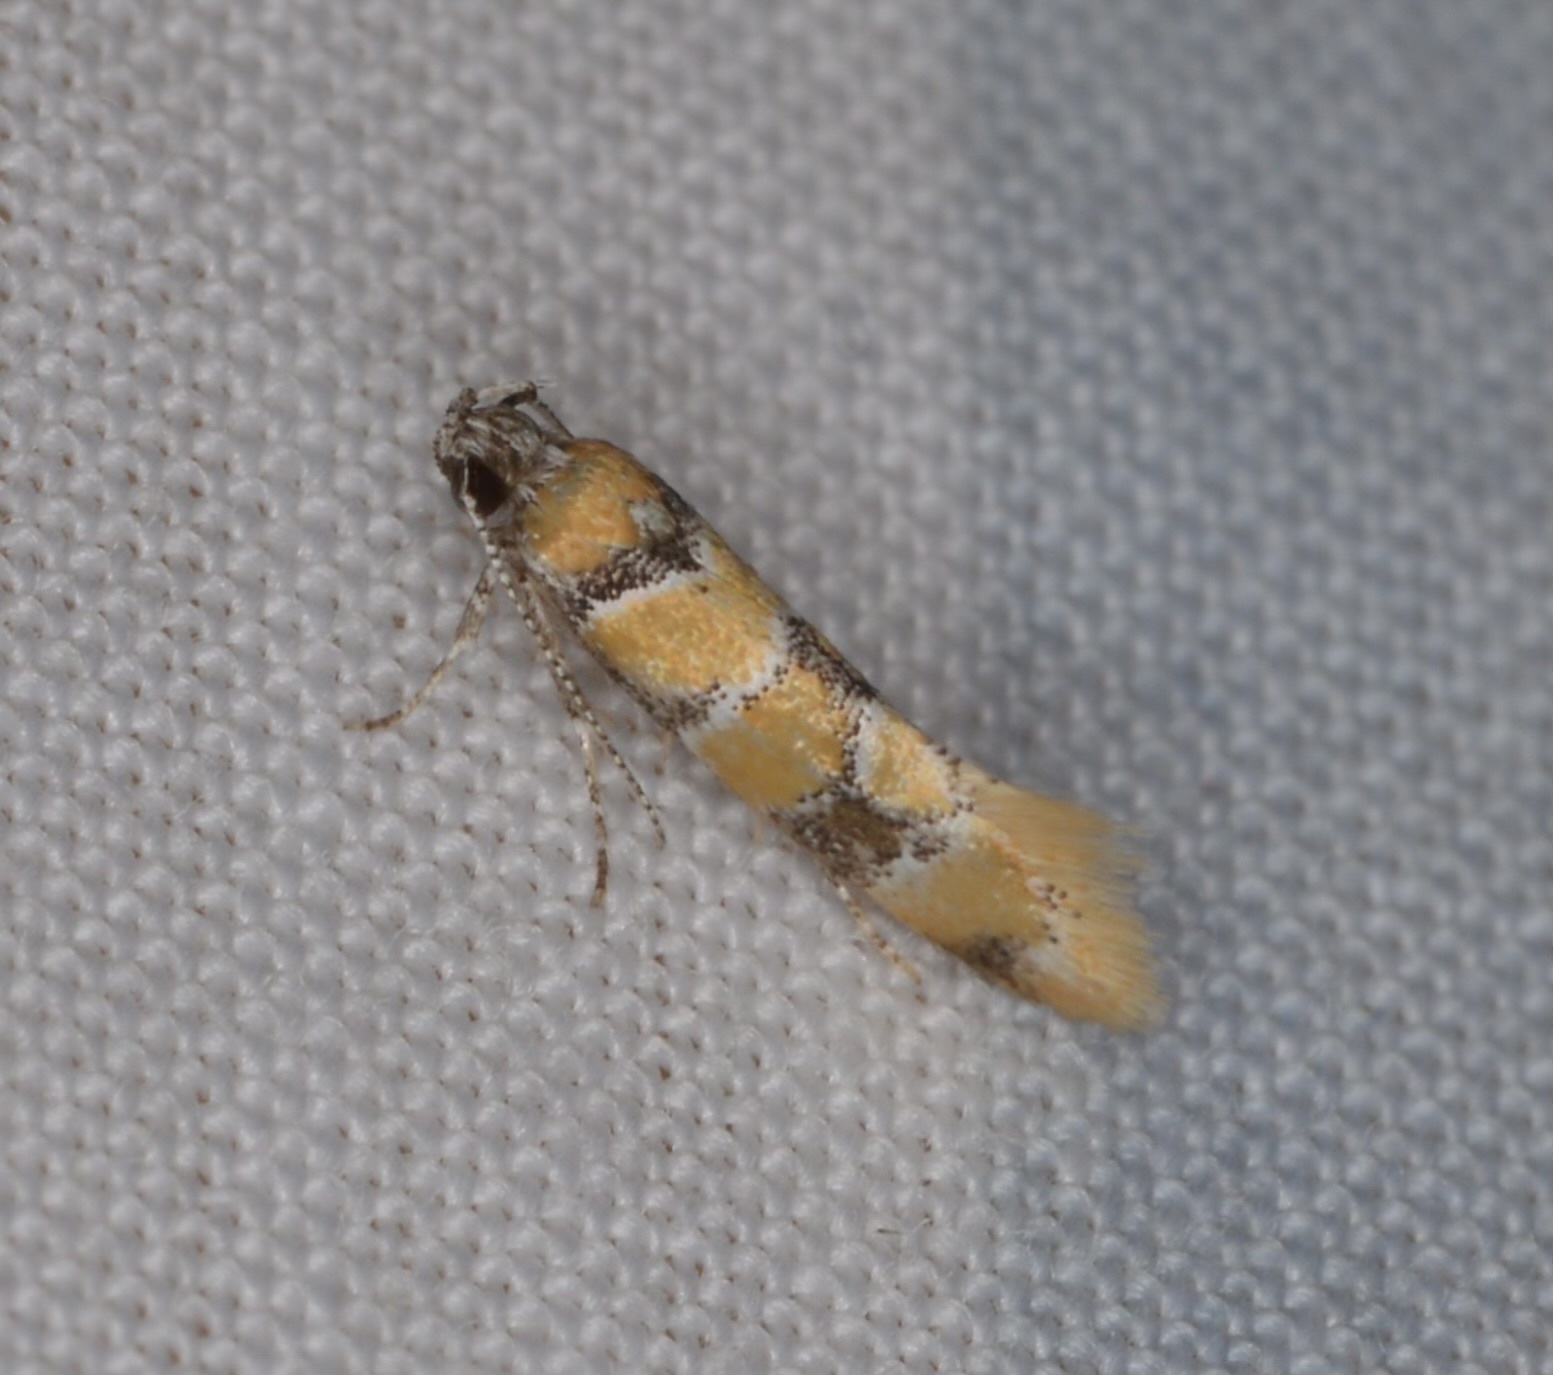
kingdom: Animalia
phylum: Arthropoda
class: Insecta
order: Lepidoptera
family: Oecophoridae
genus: Decantha
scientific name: Decantha borkhausenii
